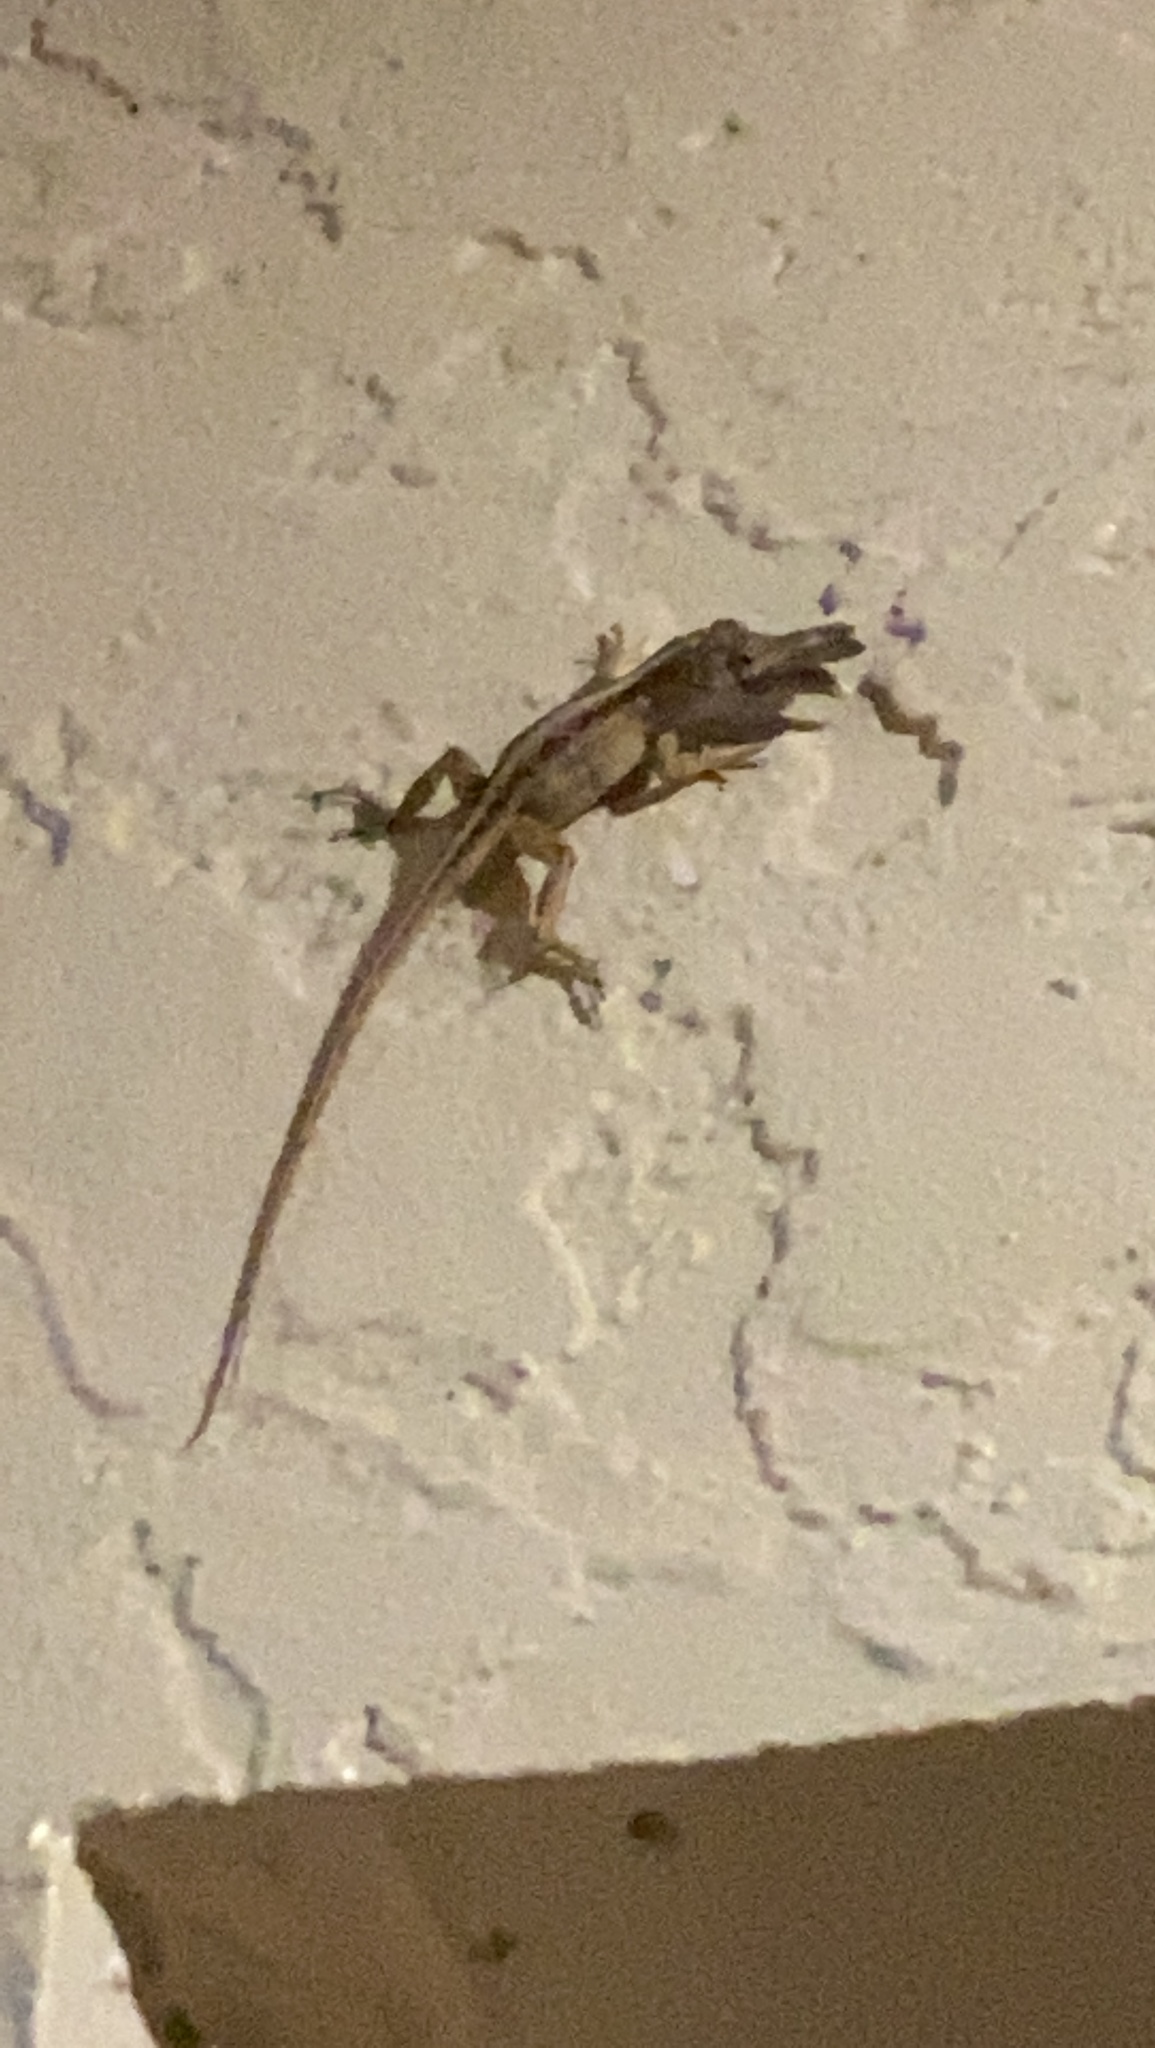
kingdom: Animalia
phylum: Chordata
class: Squamata
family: Dactyloidae
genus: Anolis
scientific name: Anolis sagrei
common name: Brown anole
